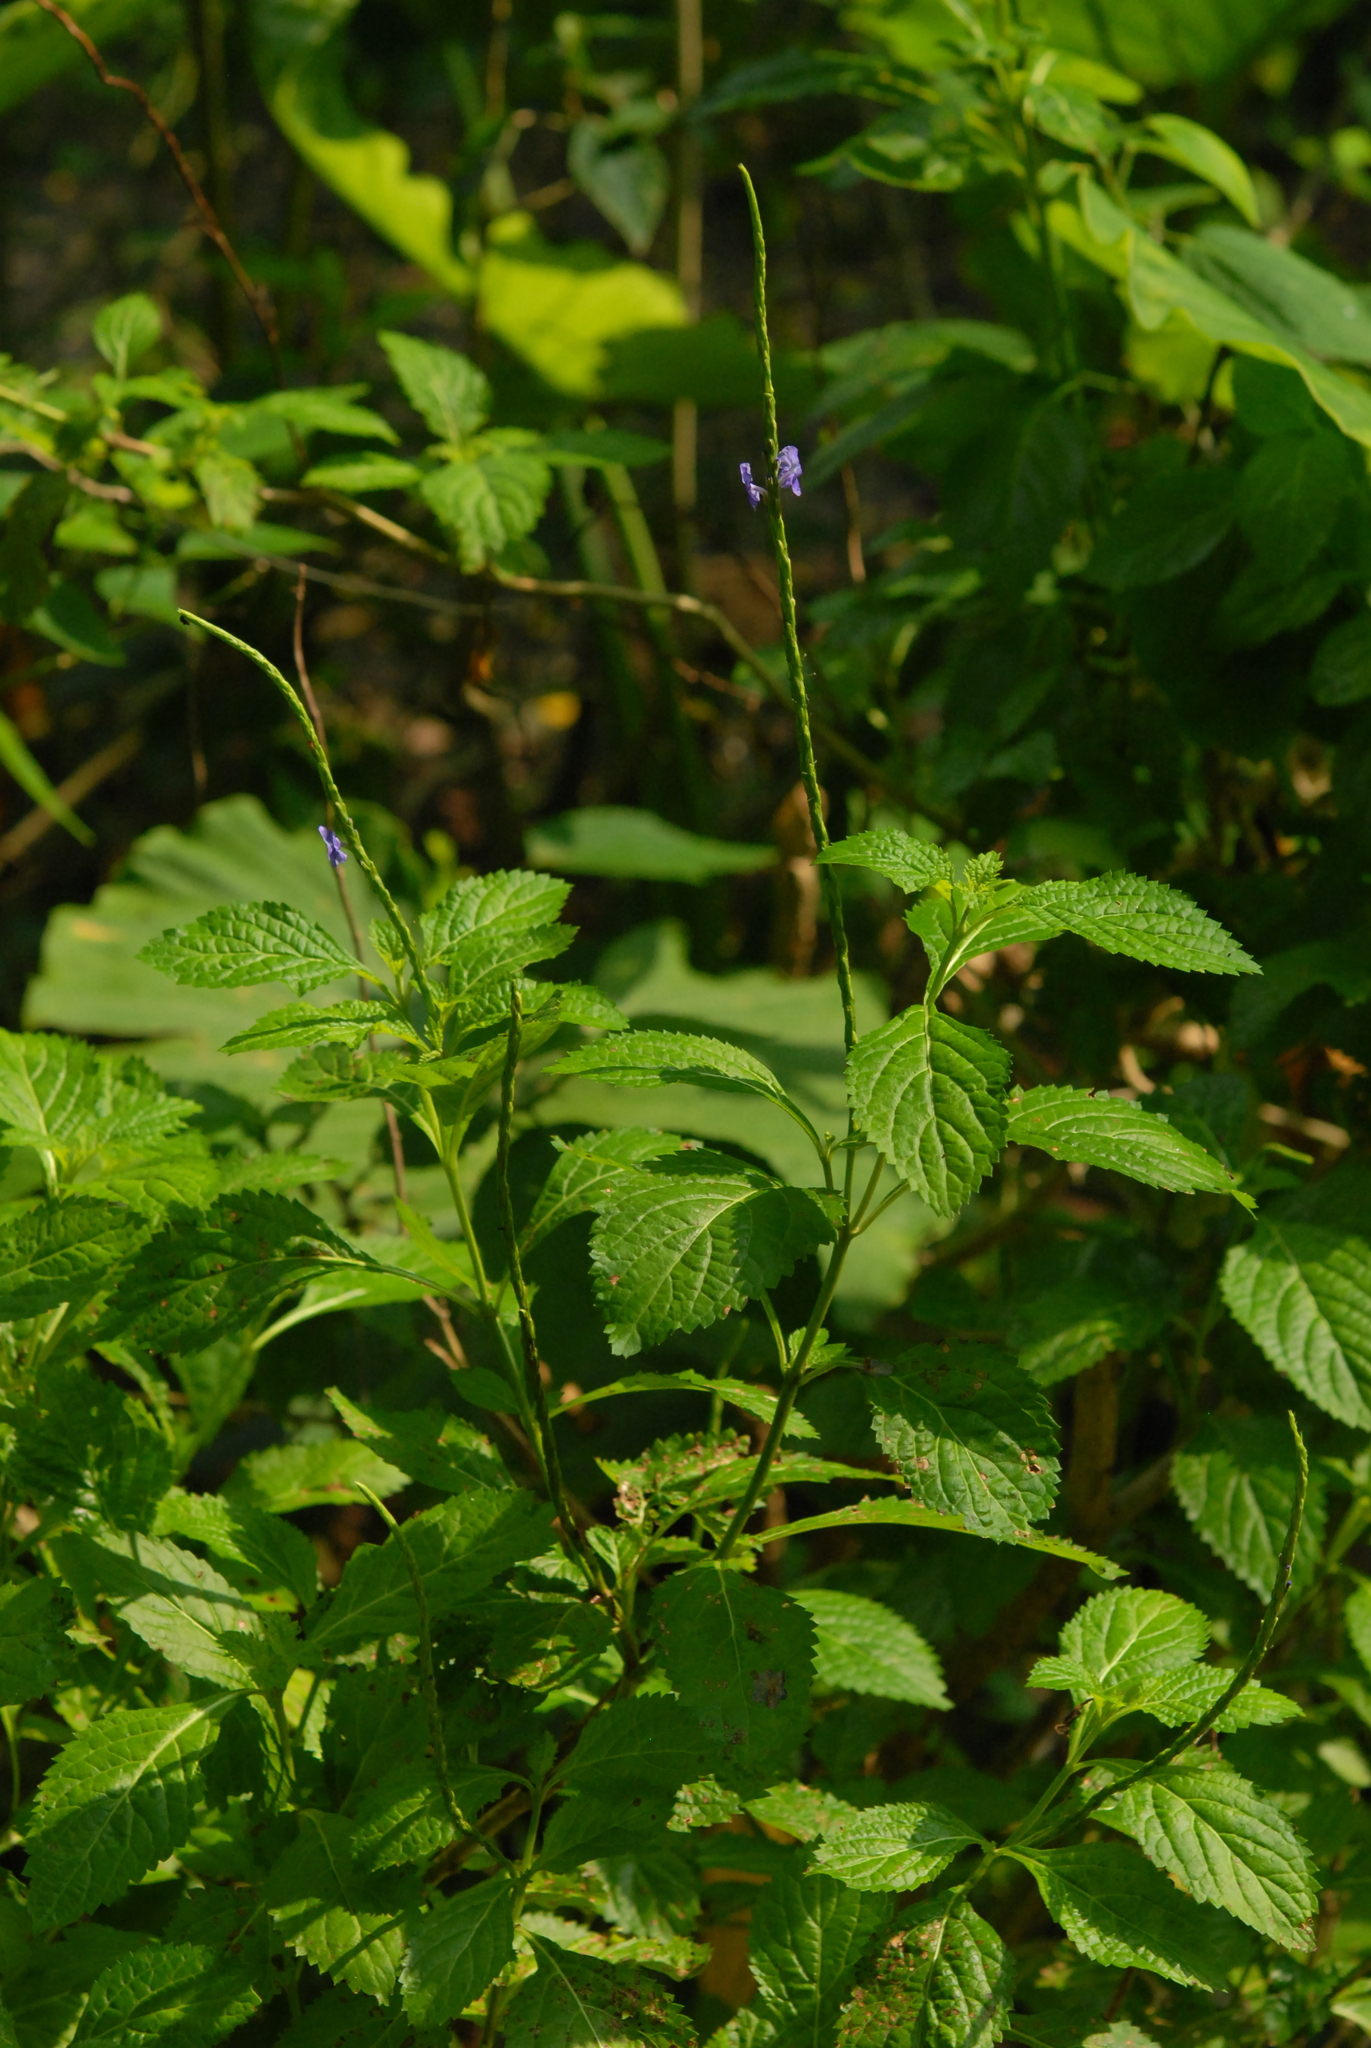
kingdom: Plantae
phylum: Tracheophyta
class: Magnoliopsida
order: Lamiales
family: Verbenaceae
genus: Stachytarpheta
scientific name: Stachytarpheta urticifolia
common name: Nettleleaf velvetberry
